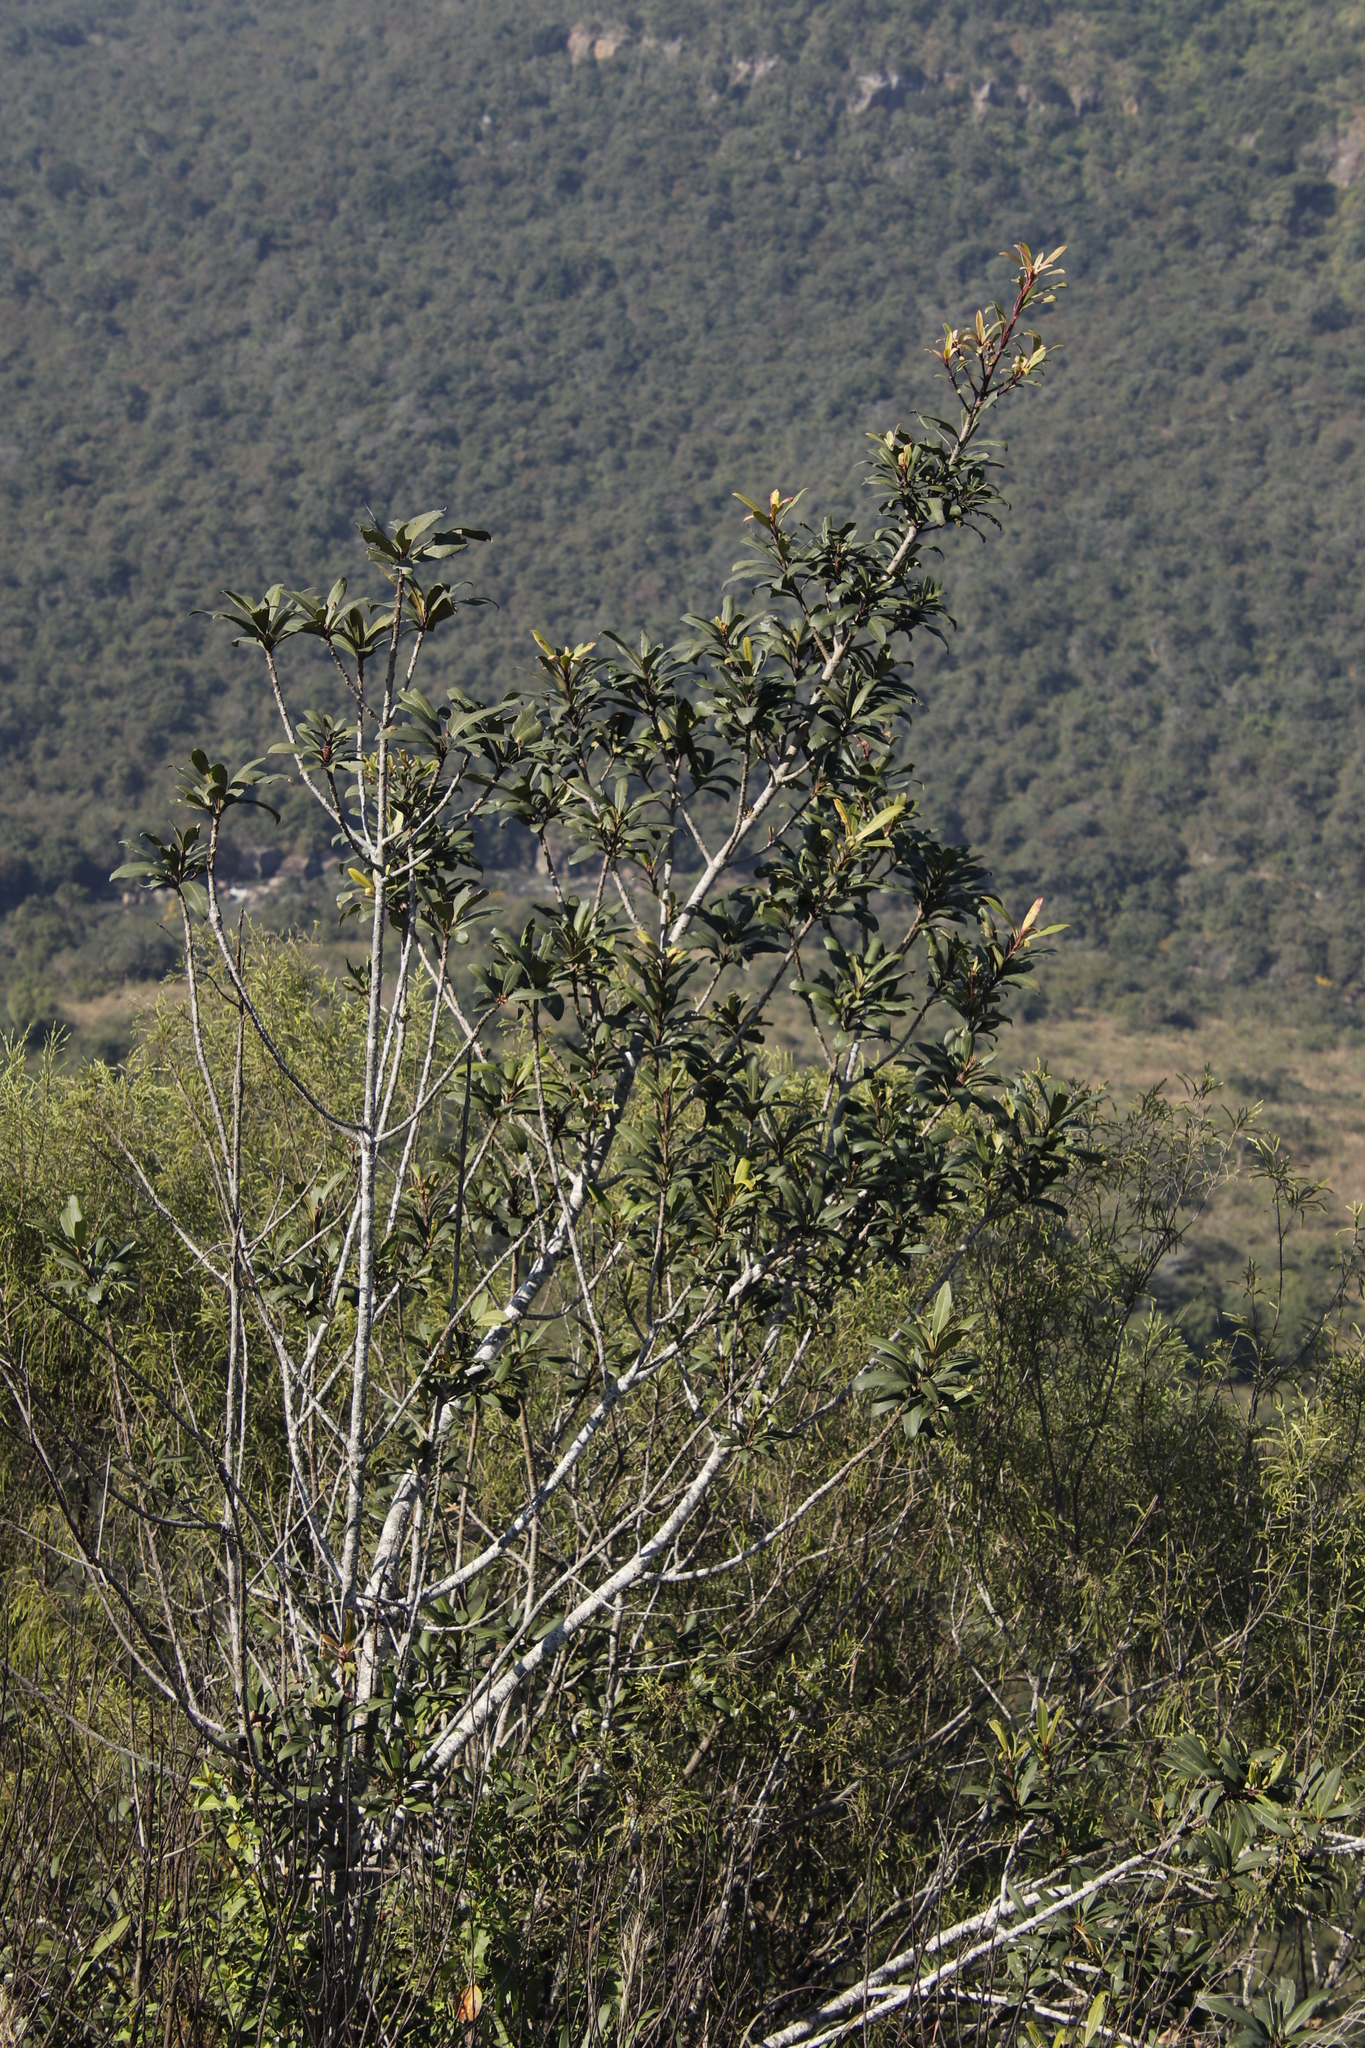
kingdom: Plantae
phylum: Tracheophyta
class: Magnoliopsida
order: Ericales
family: Primulaceae
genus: Myrsine
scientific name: Myrsine melanophloeos
